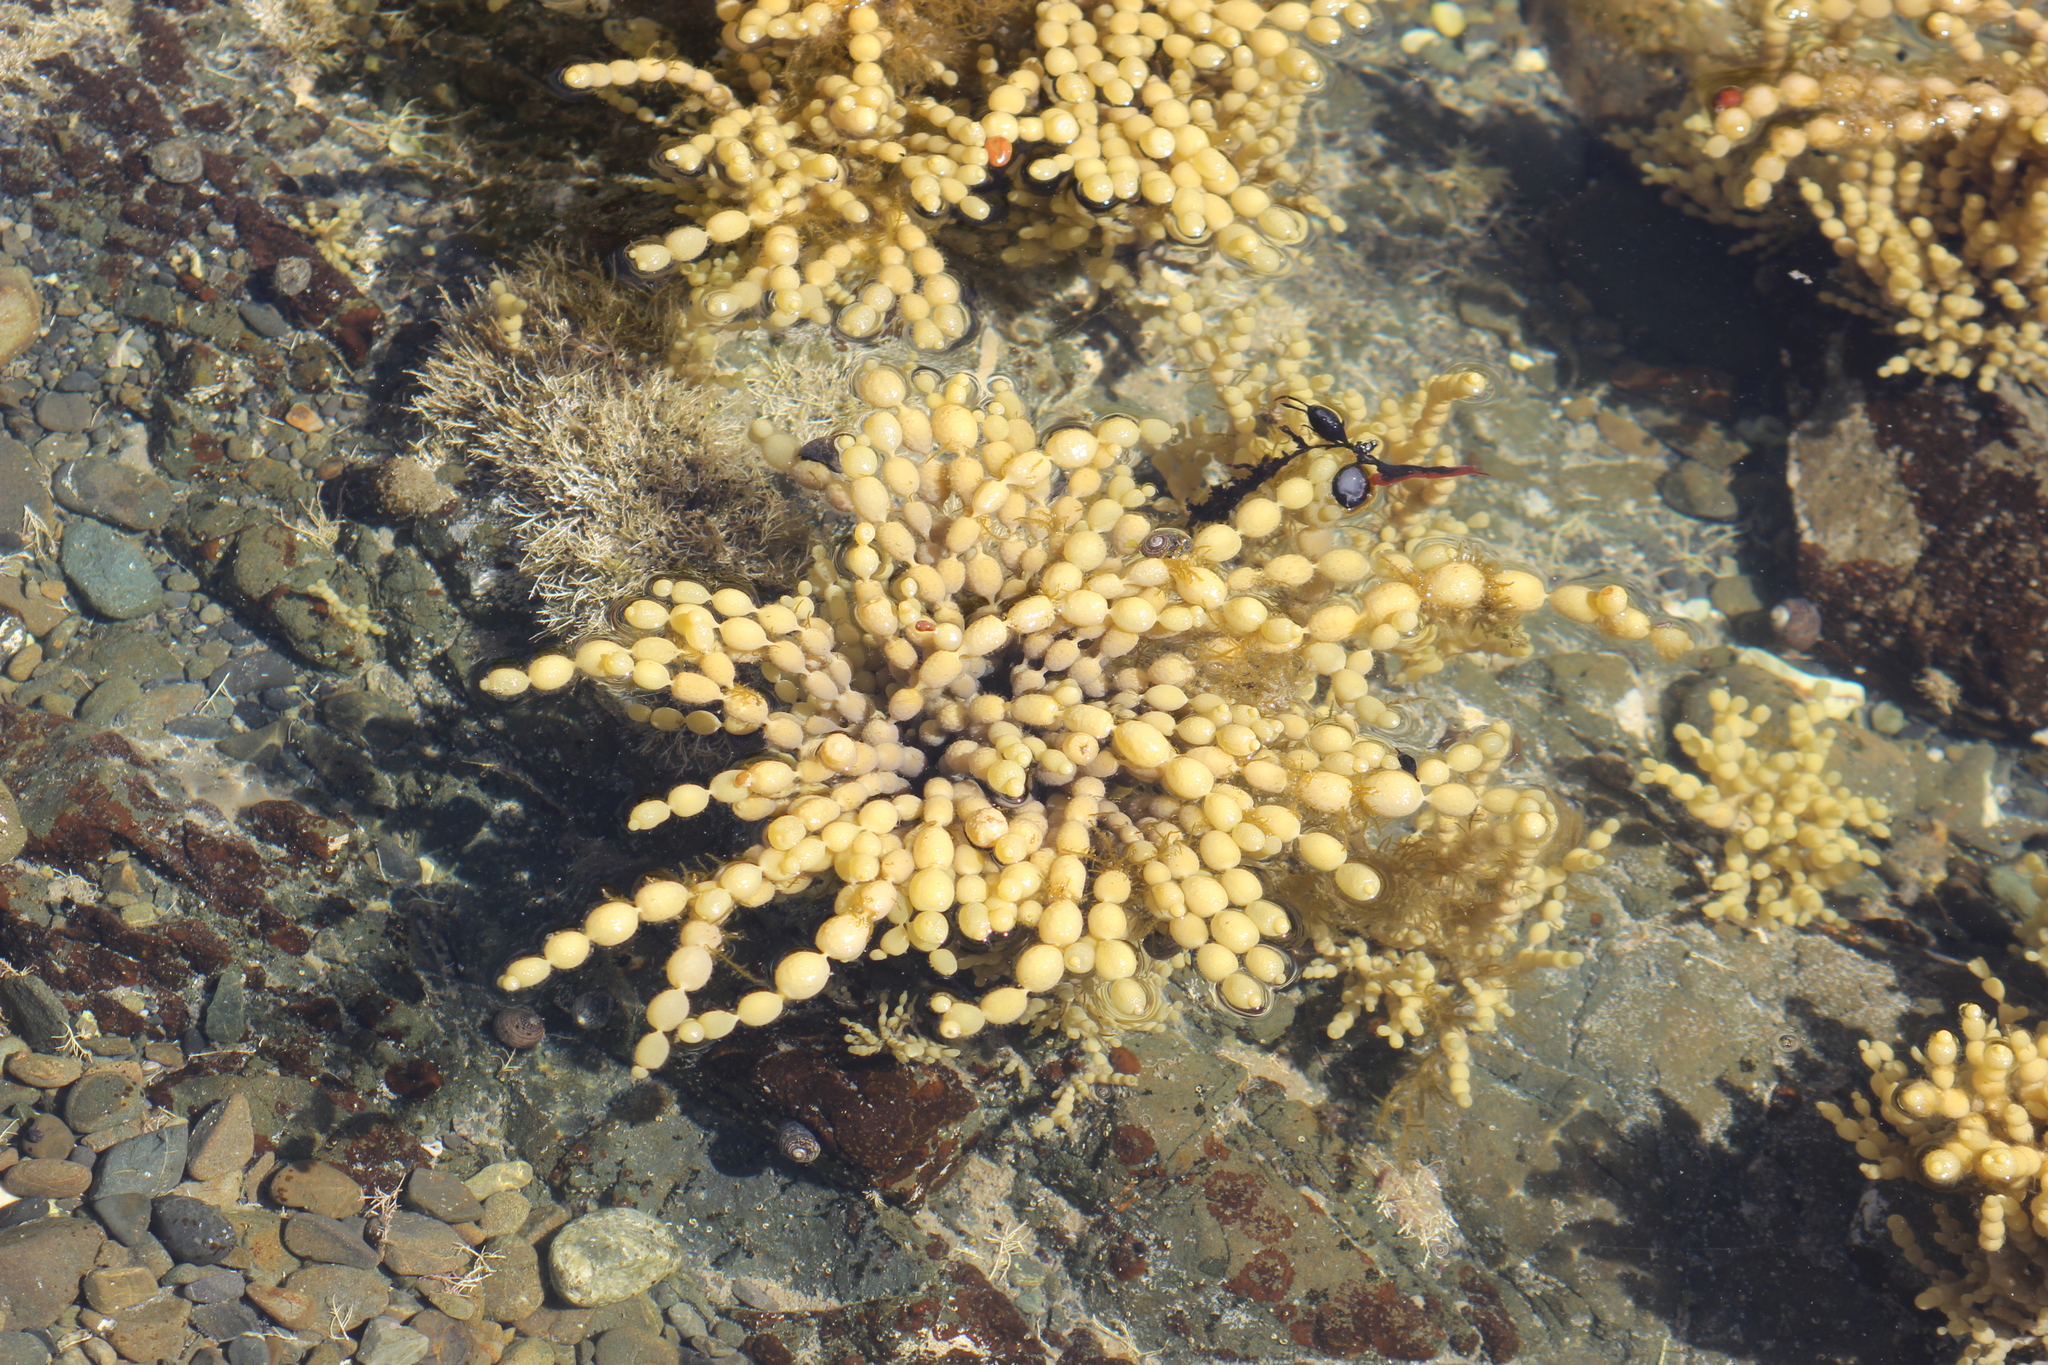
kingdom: Chromista
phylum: Ochrophyta
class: Phaeophyceae
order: Fucales
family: Hormosiraceae
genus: Hormosira
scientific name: Hormosira banksii
